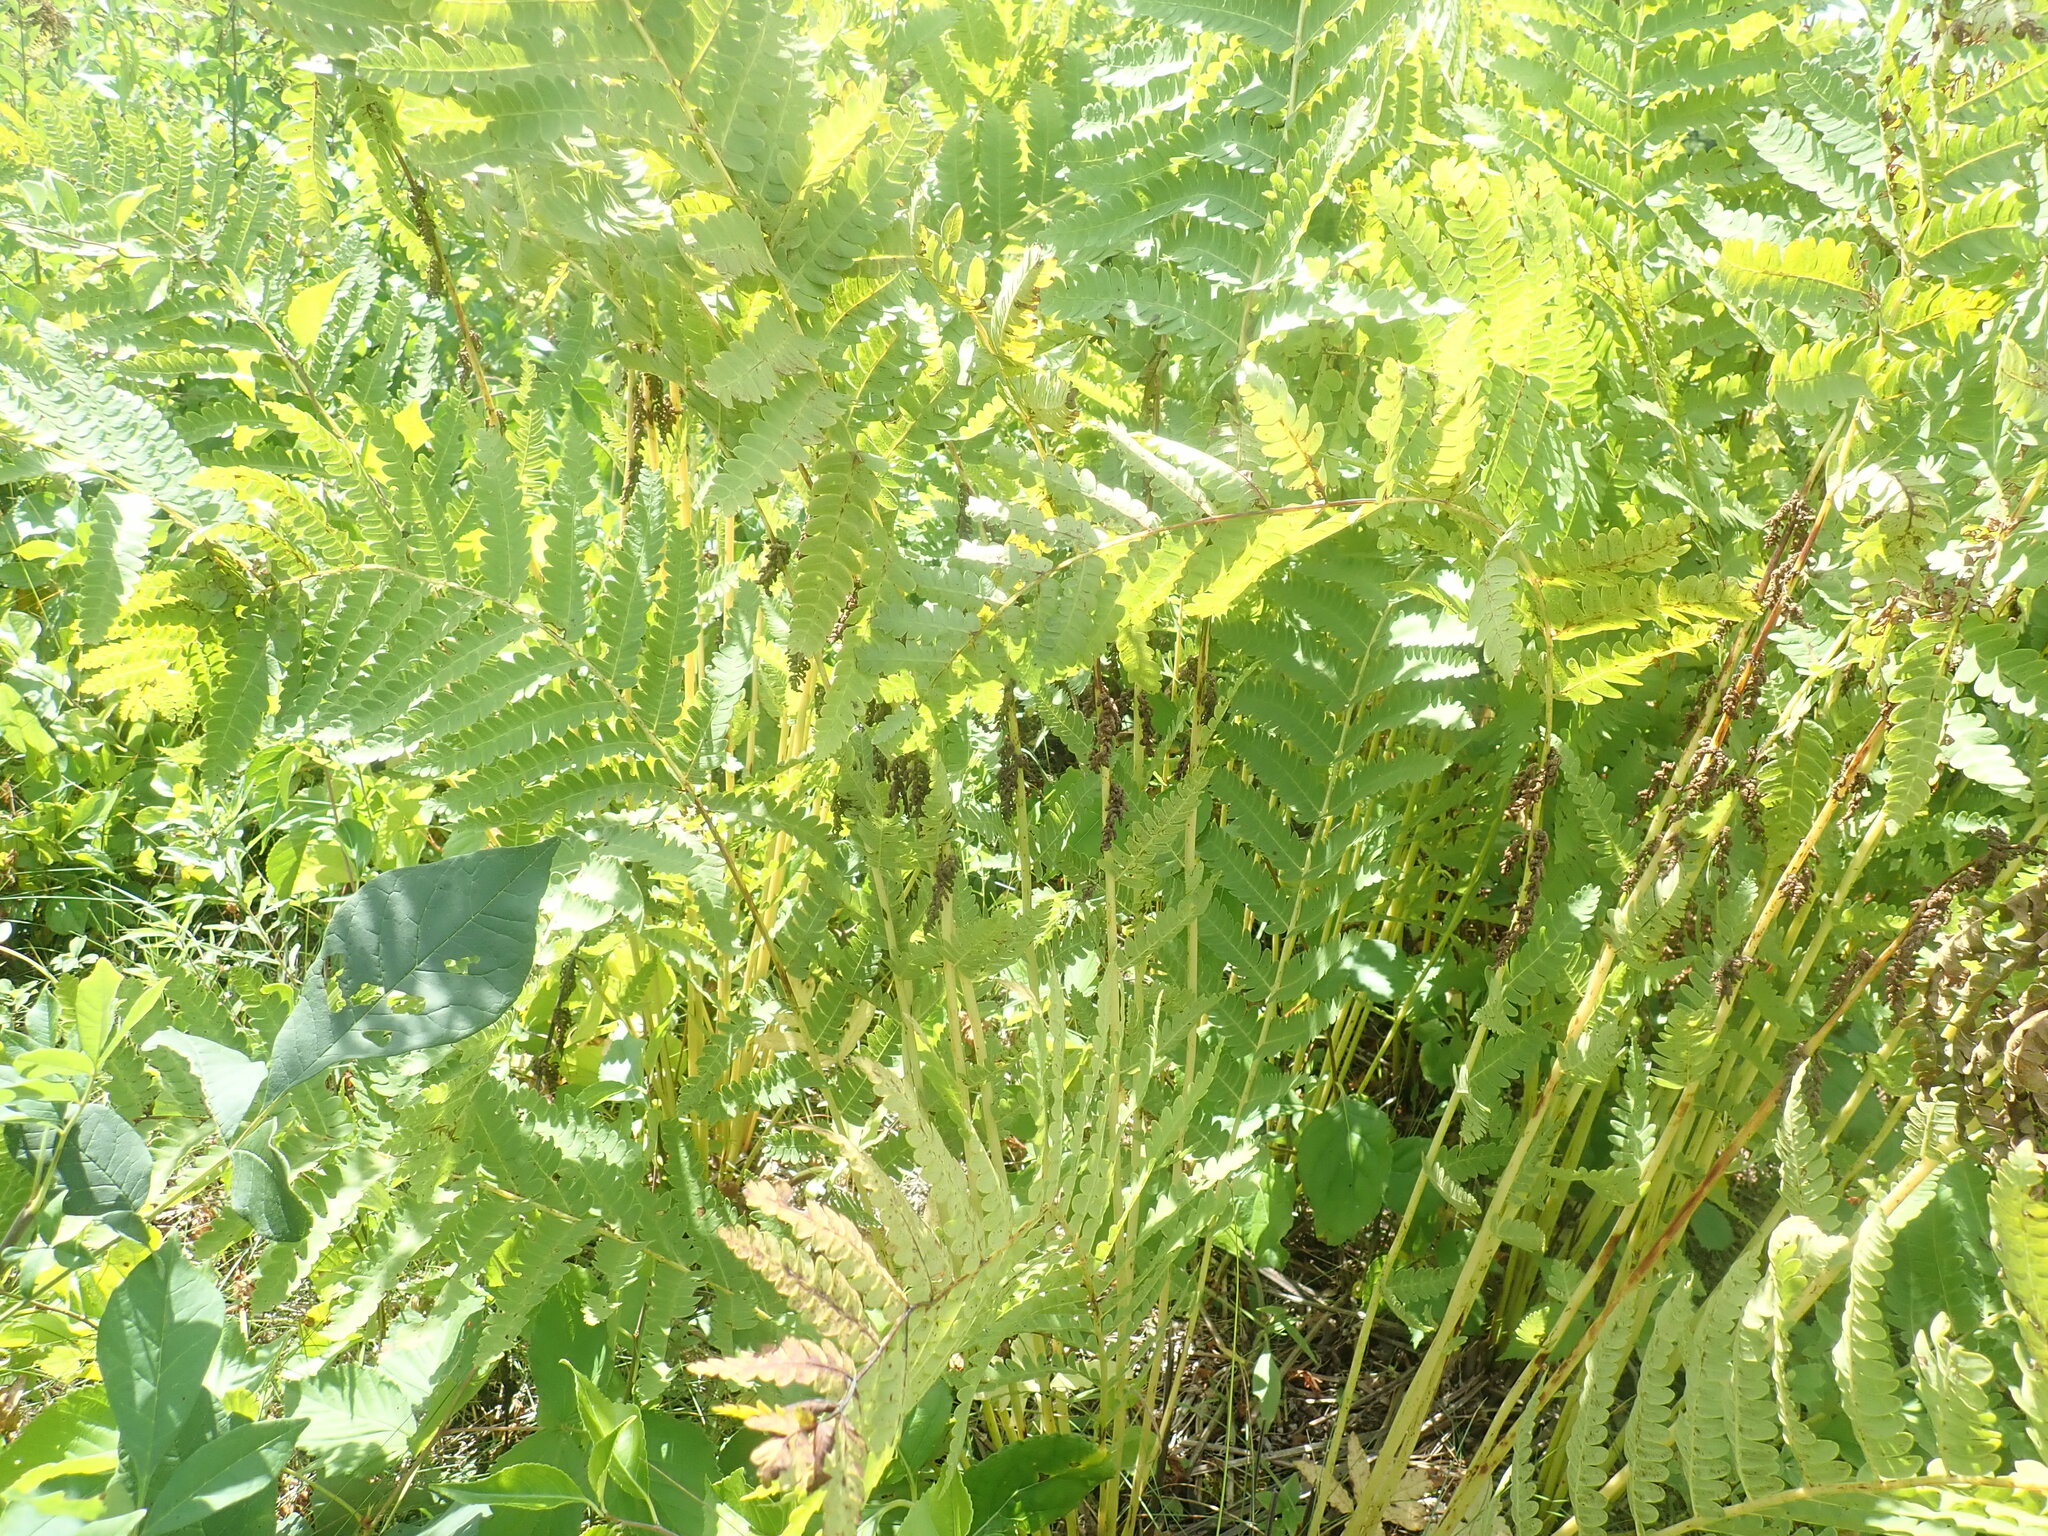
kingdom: Plantae
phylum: Tracheophyta
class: Polypodiopsida
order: Osmundales
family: Osmundaceae
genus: Claytosmunda
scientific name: Claytosmunda claytoniana
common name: Clayton's fern
